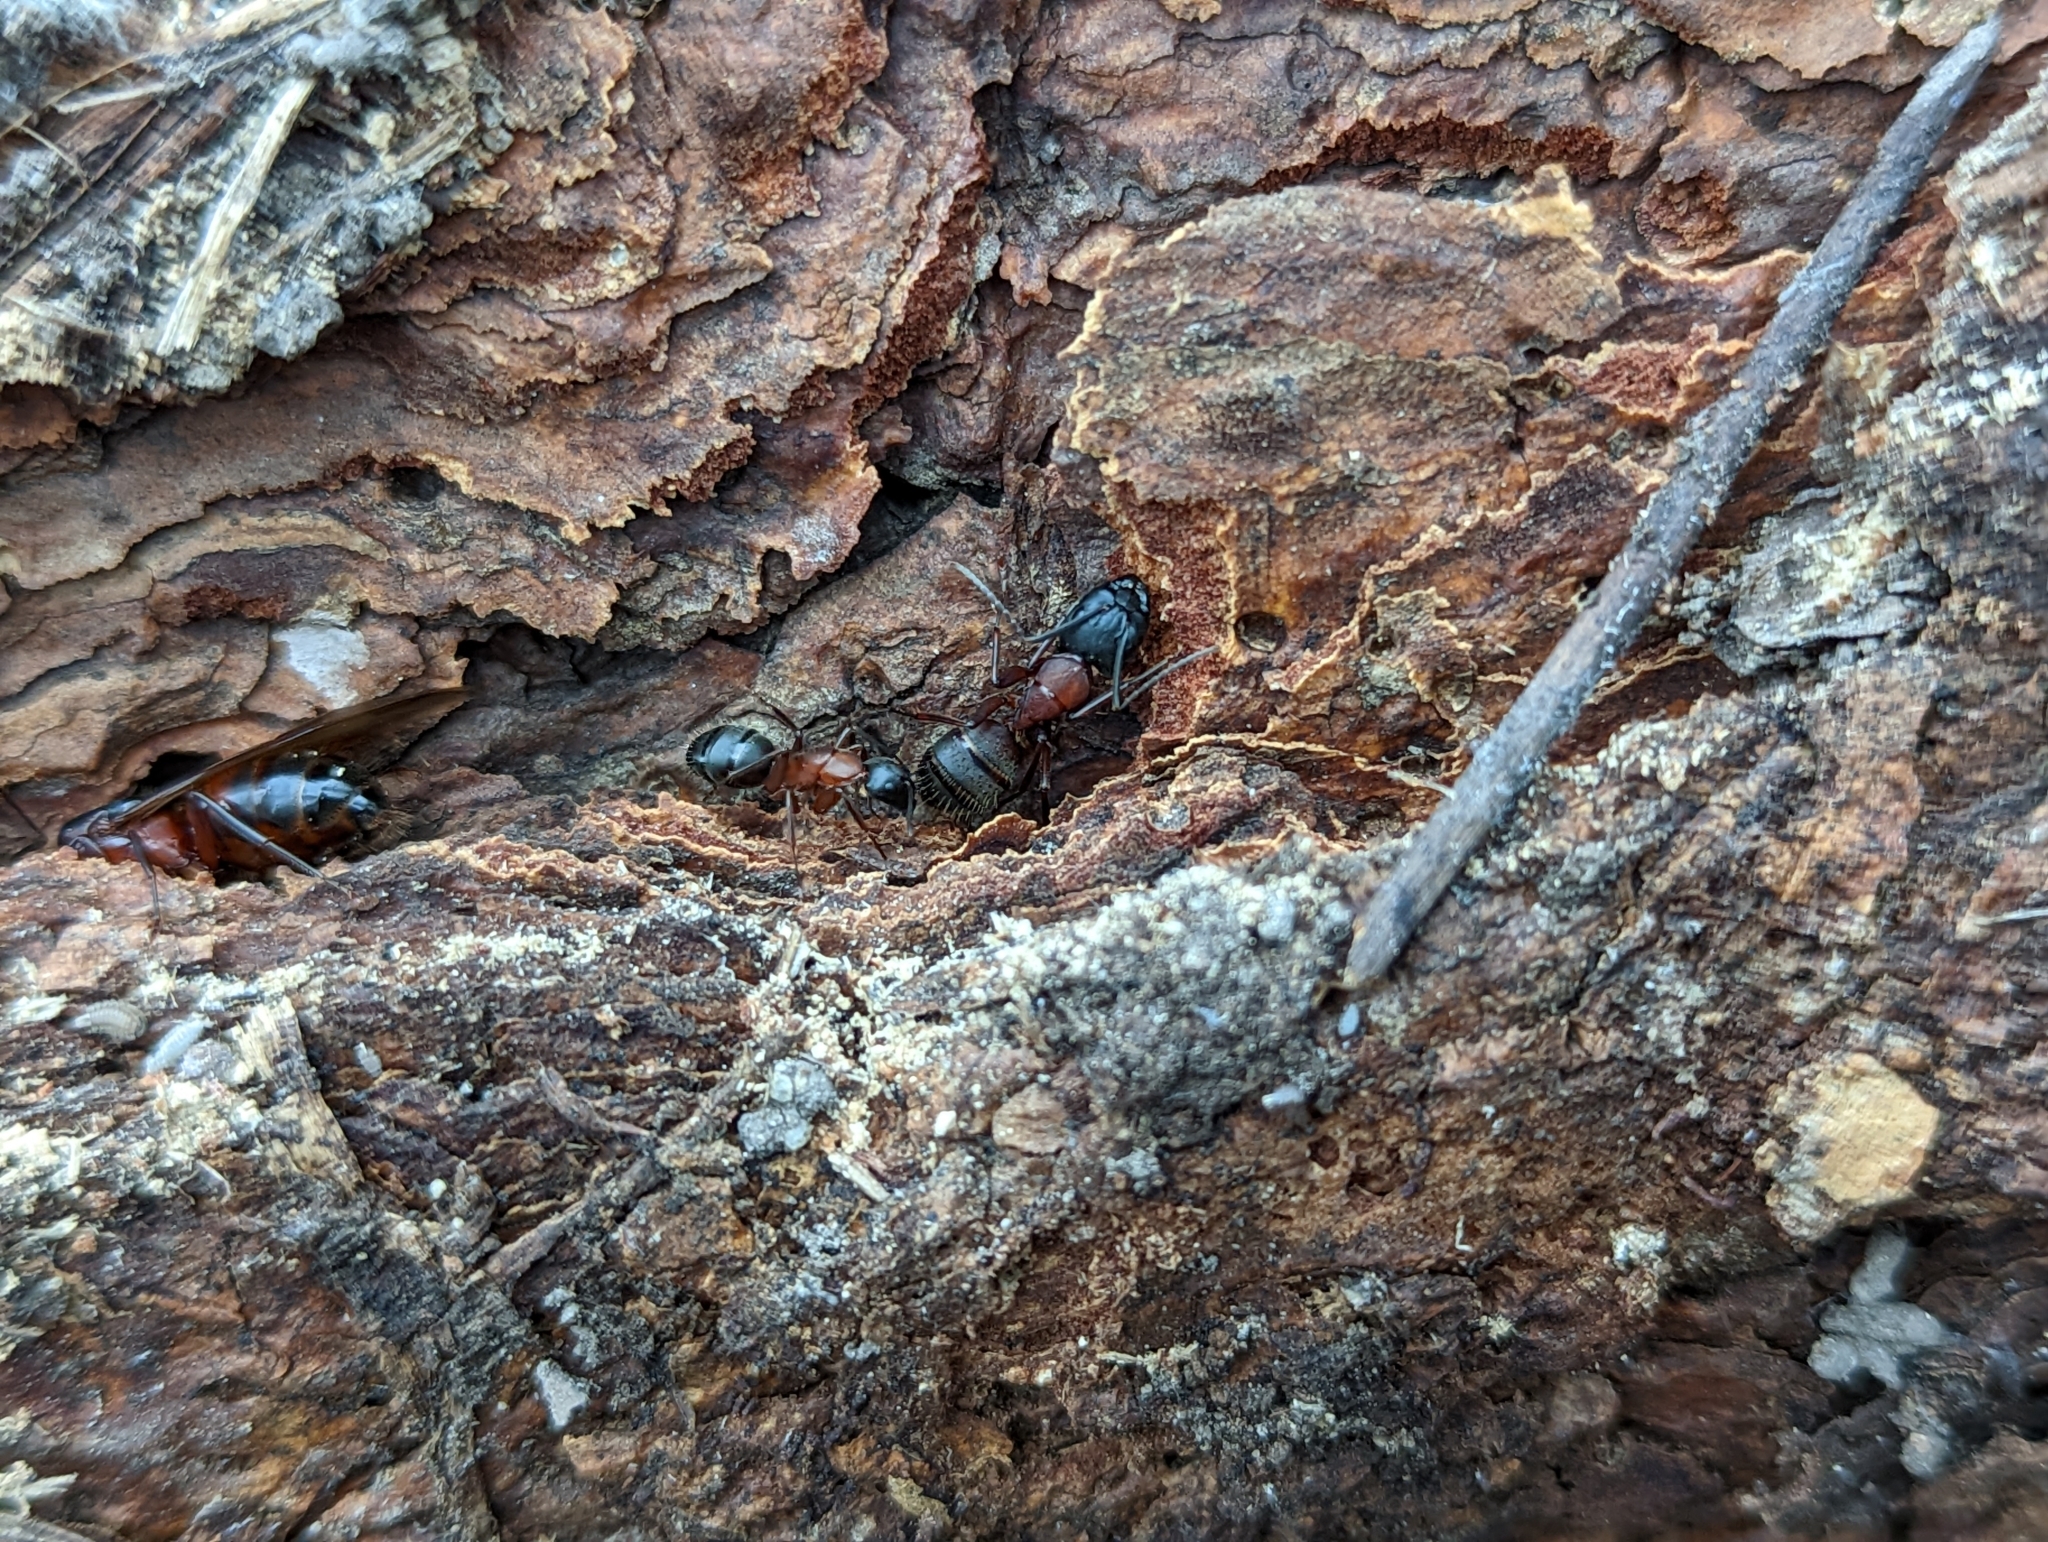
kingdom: Animalia
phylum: Arthropoda
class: Insecta
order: Hymenoptera
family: Formicidae
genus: Camponotus
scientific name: Camponotus vicinus
